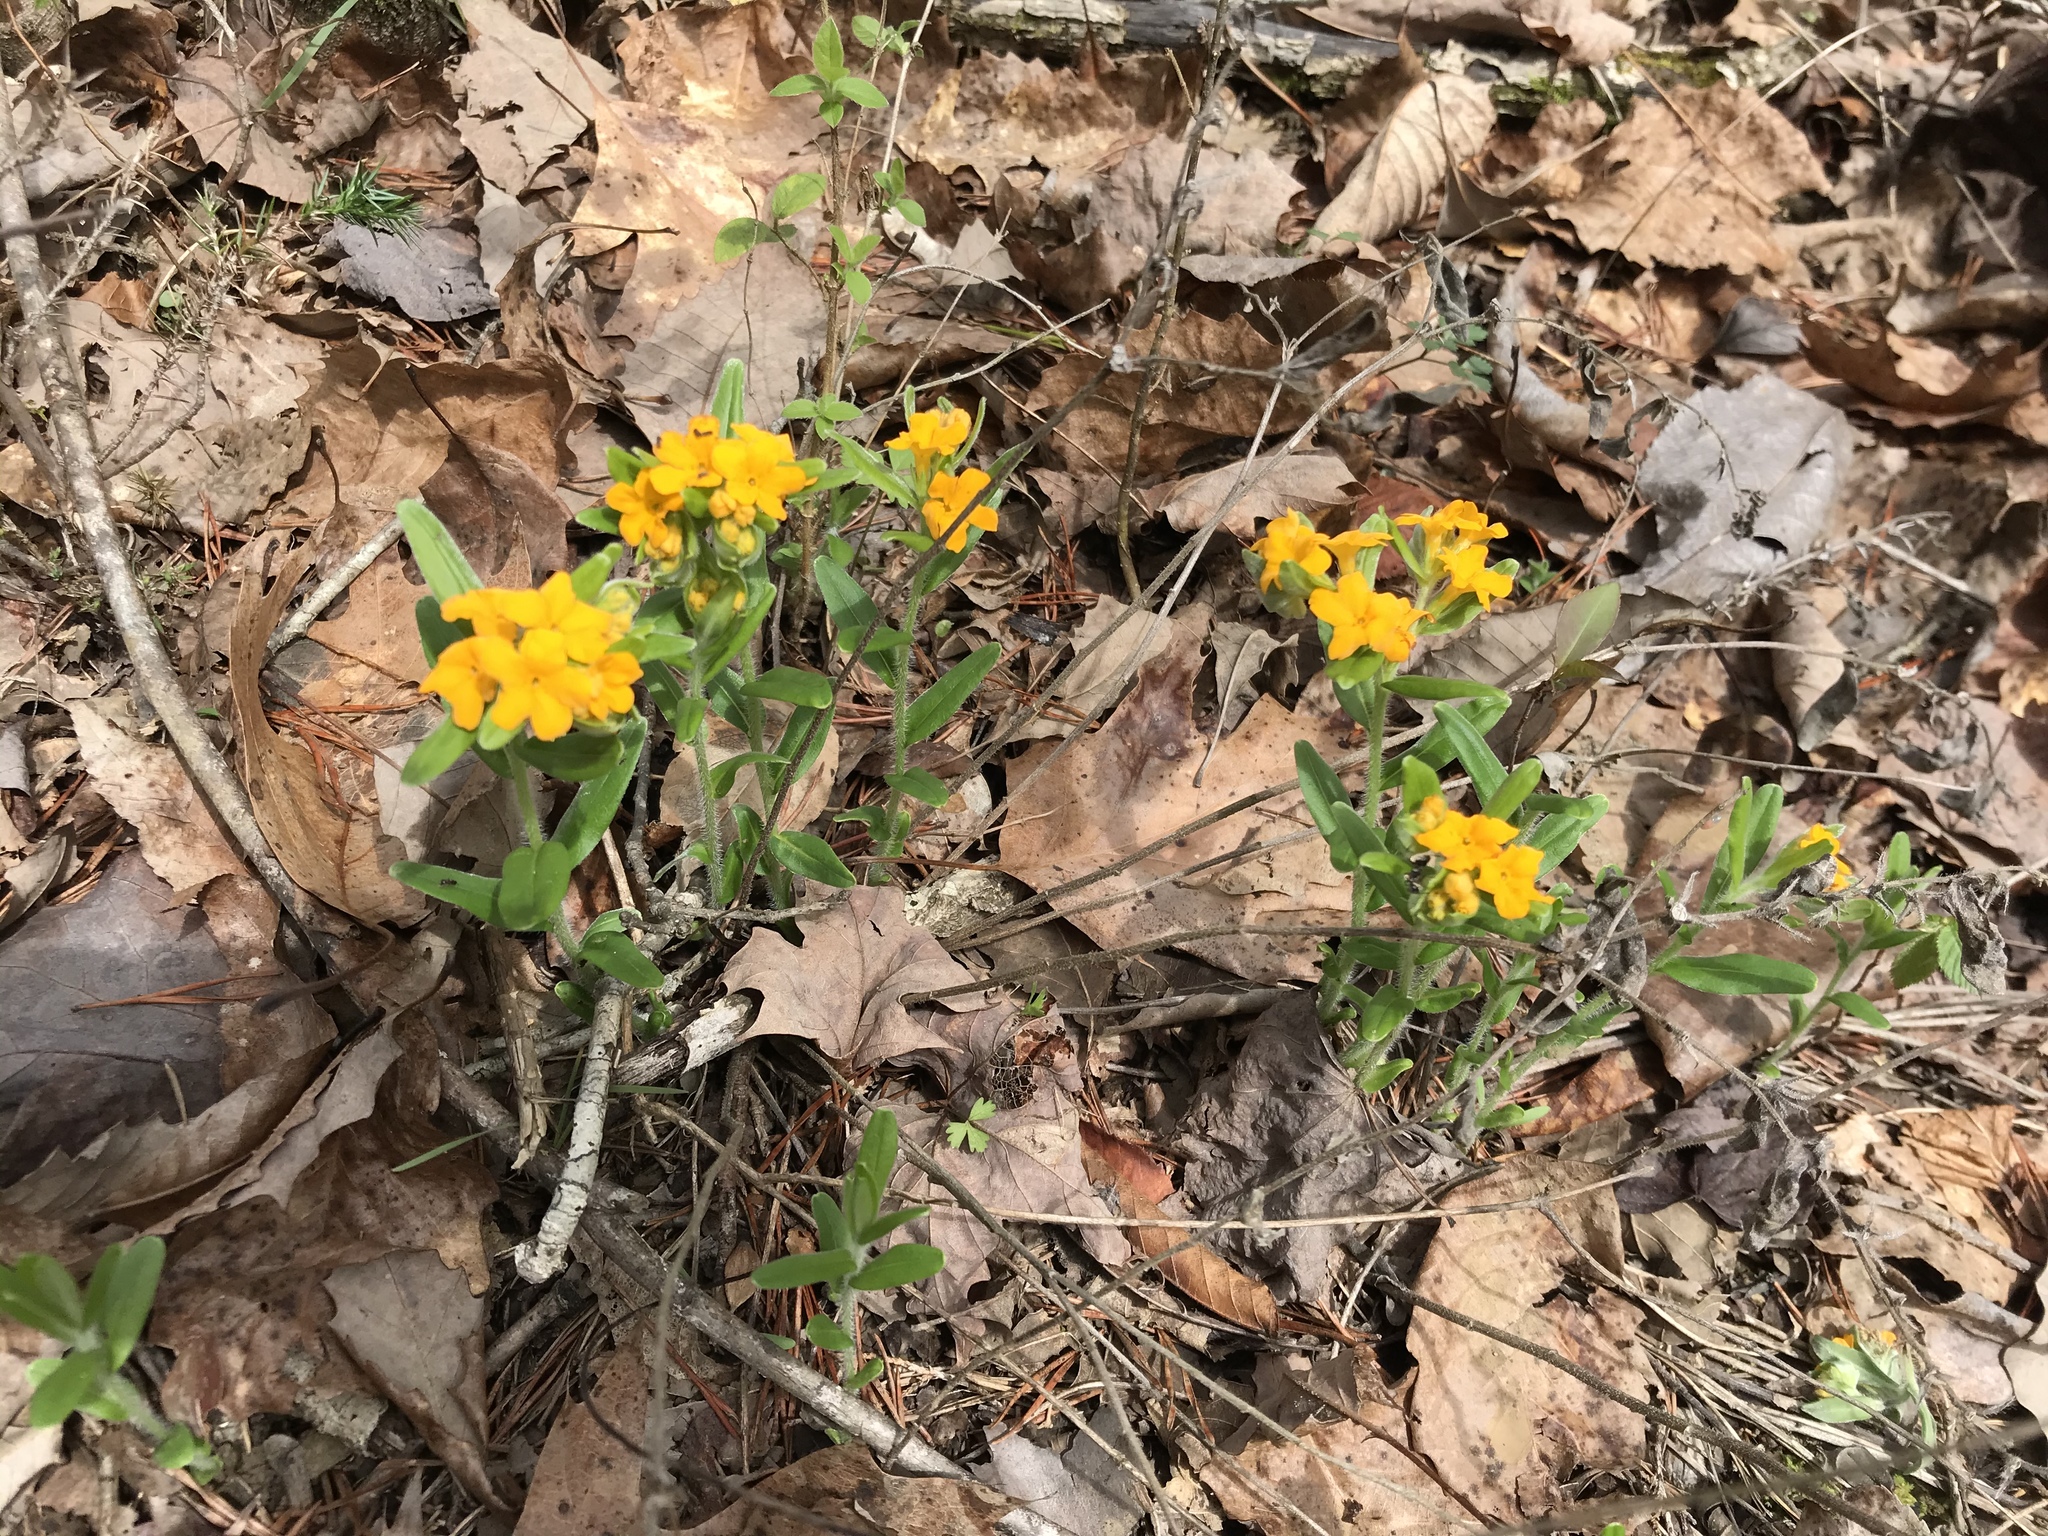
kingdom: Plantae
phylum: Tracheophyta
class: Magnoliopsida
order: Boraginales
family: Boraginaceae
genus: Lithospermum
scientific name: Lithospermum canescens
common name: Hoary puccoon
